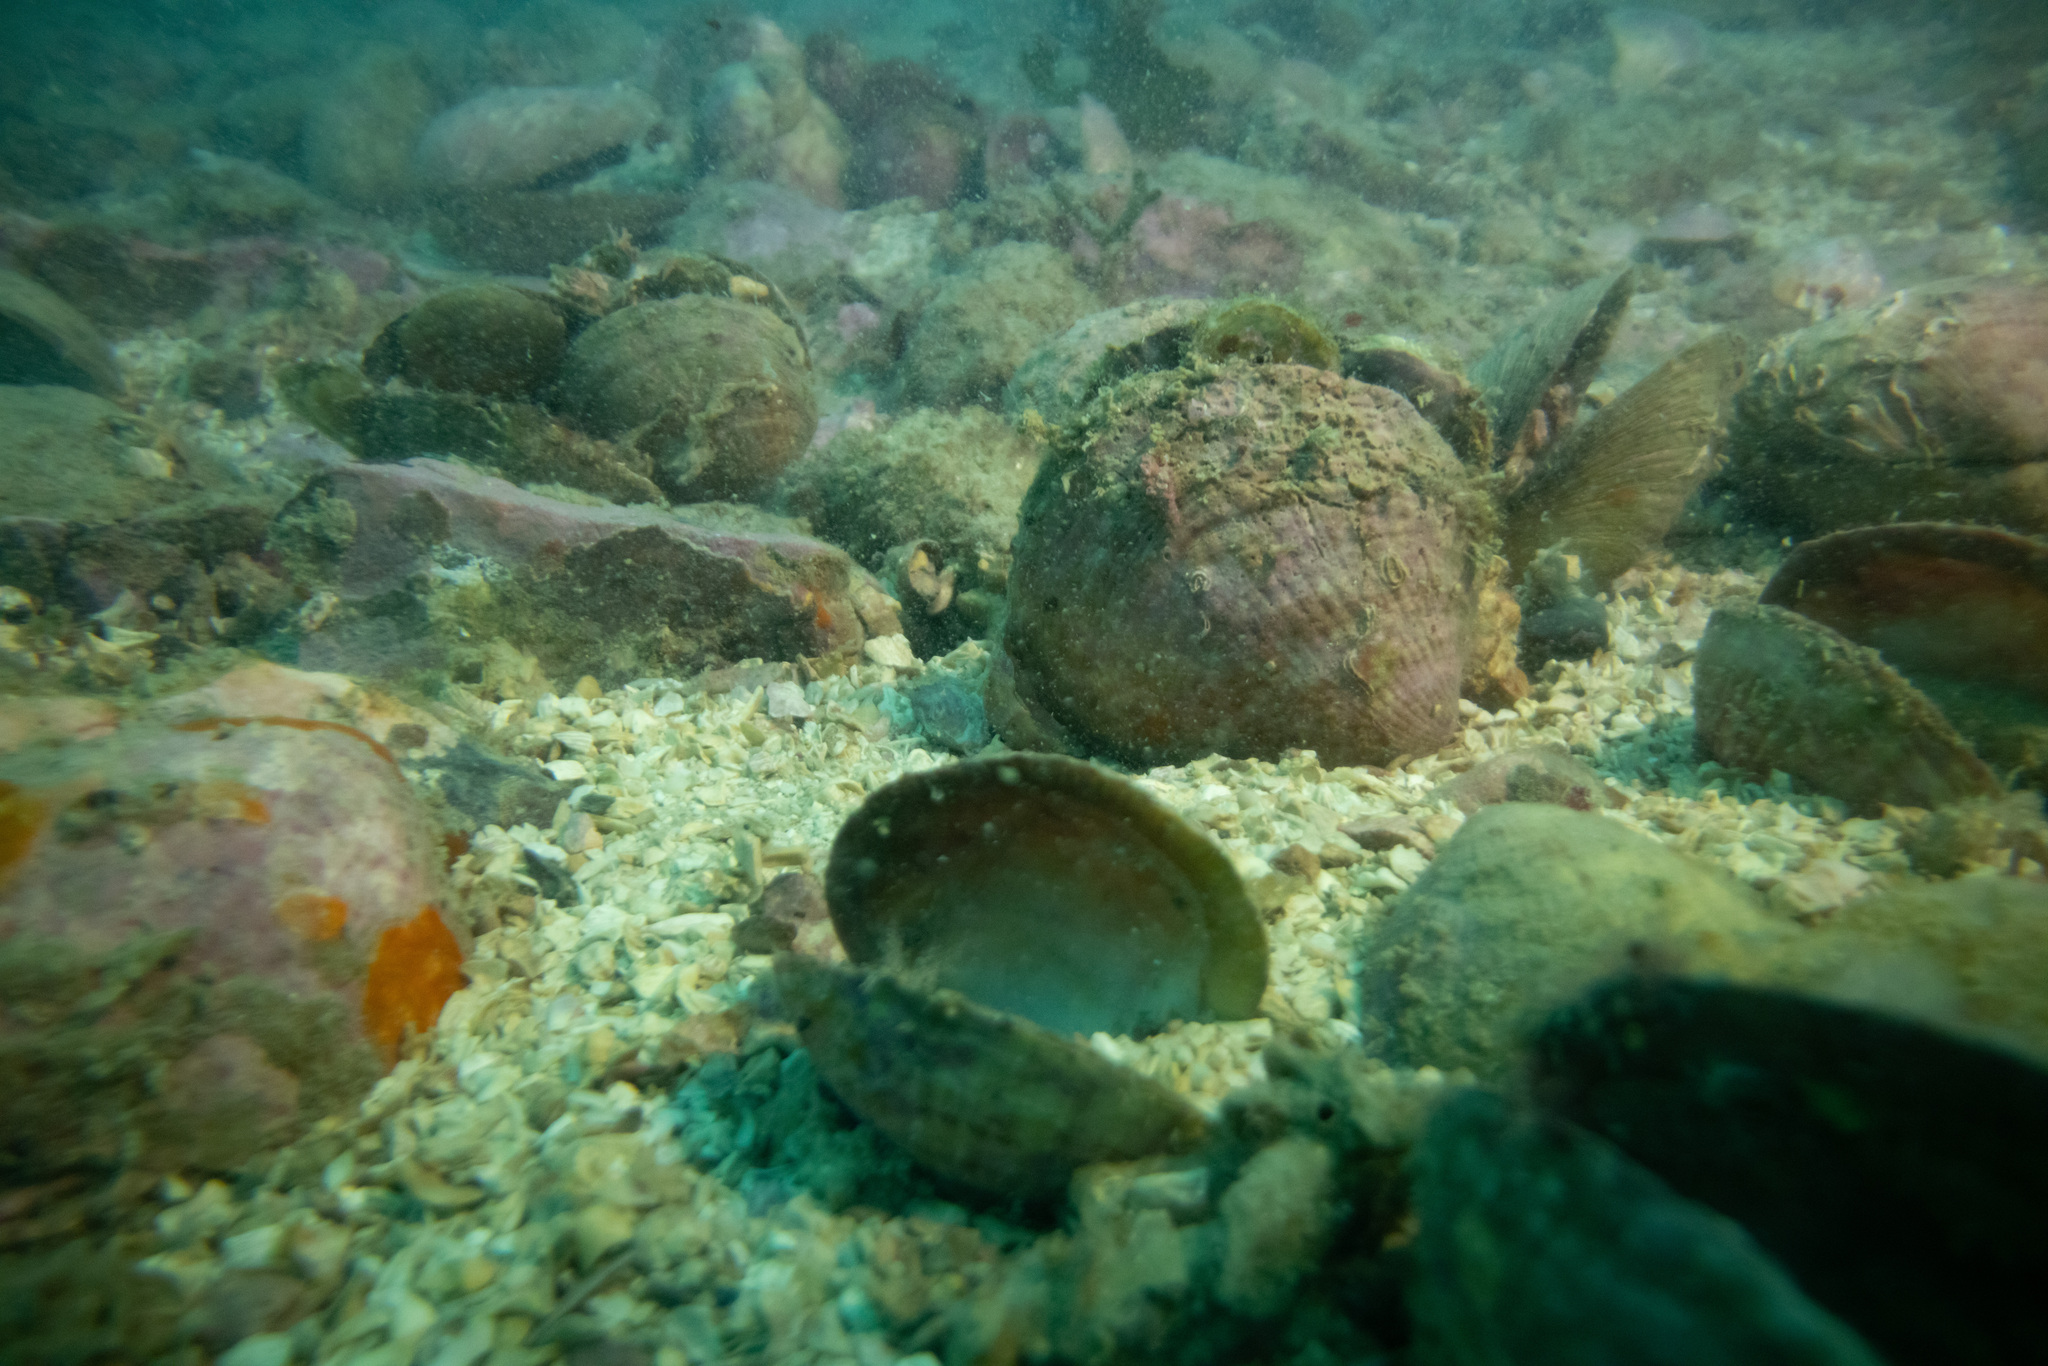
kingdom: Animalia
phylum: Mollusca
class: Bivalvia
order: Arcida
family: Glycymerididae
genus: Tucetona
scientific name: Tucetona laticostata
